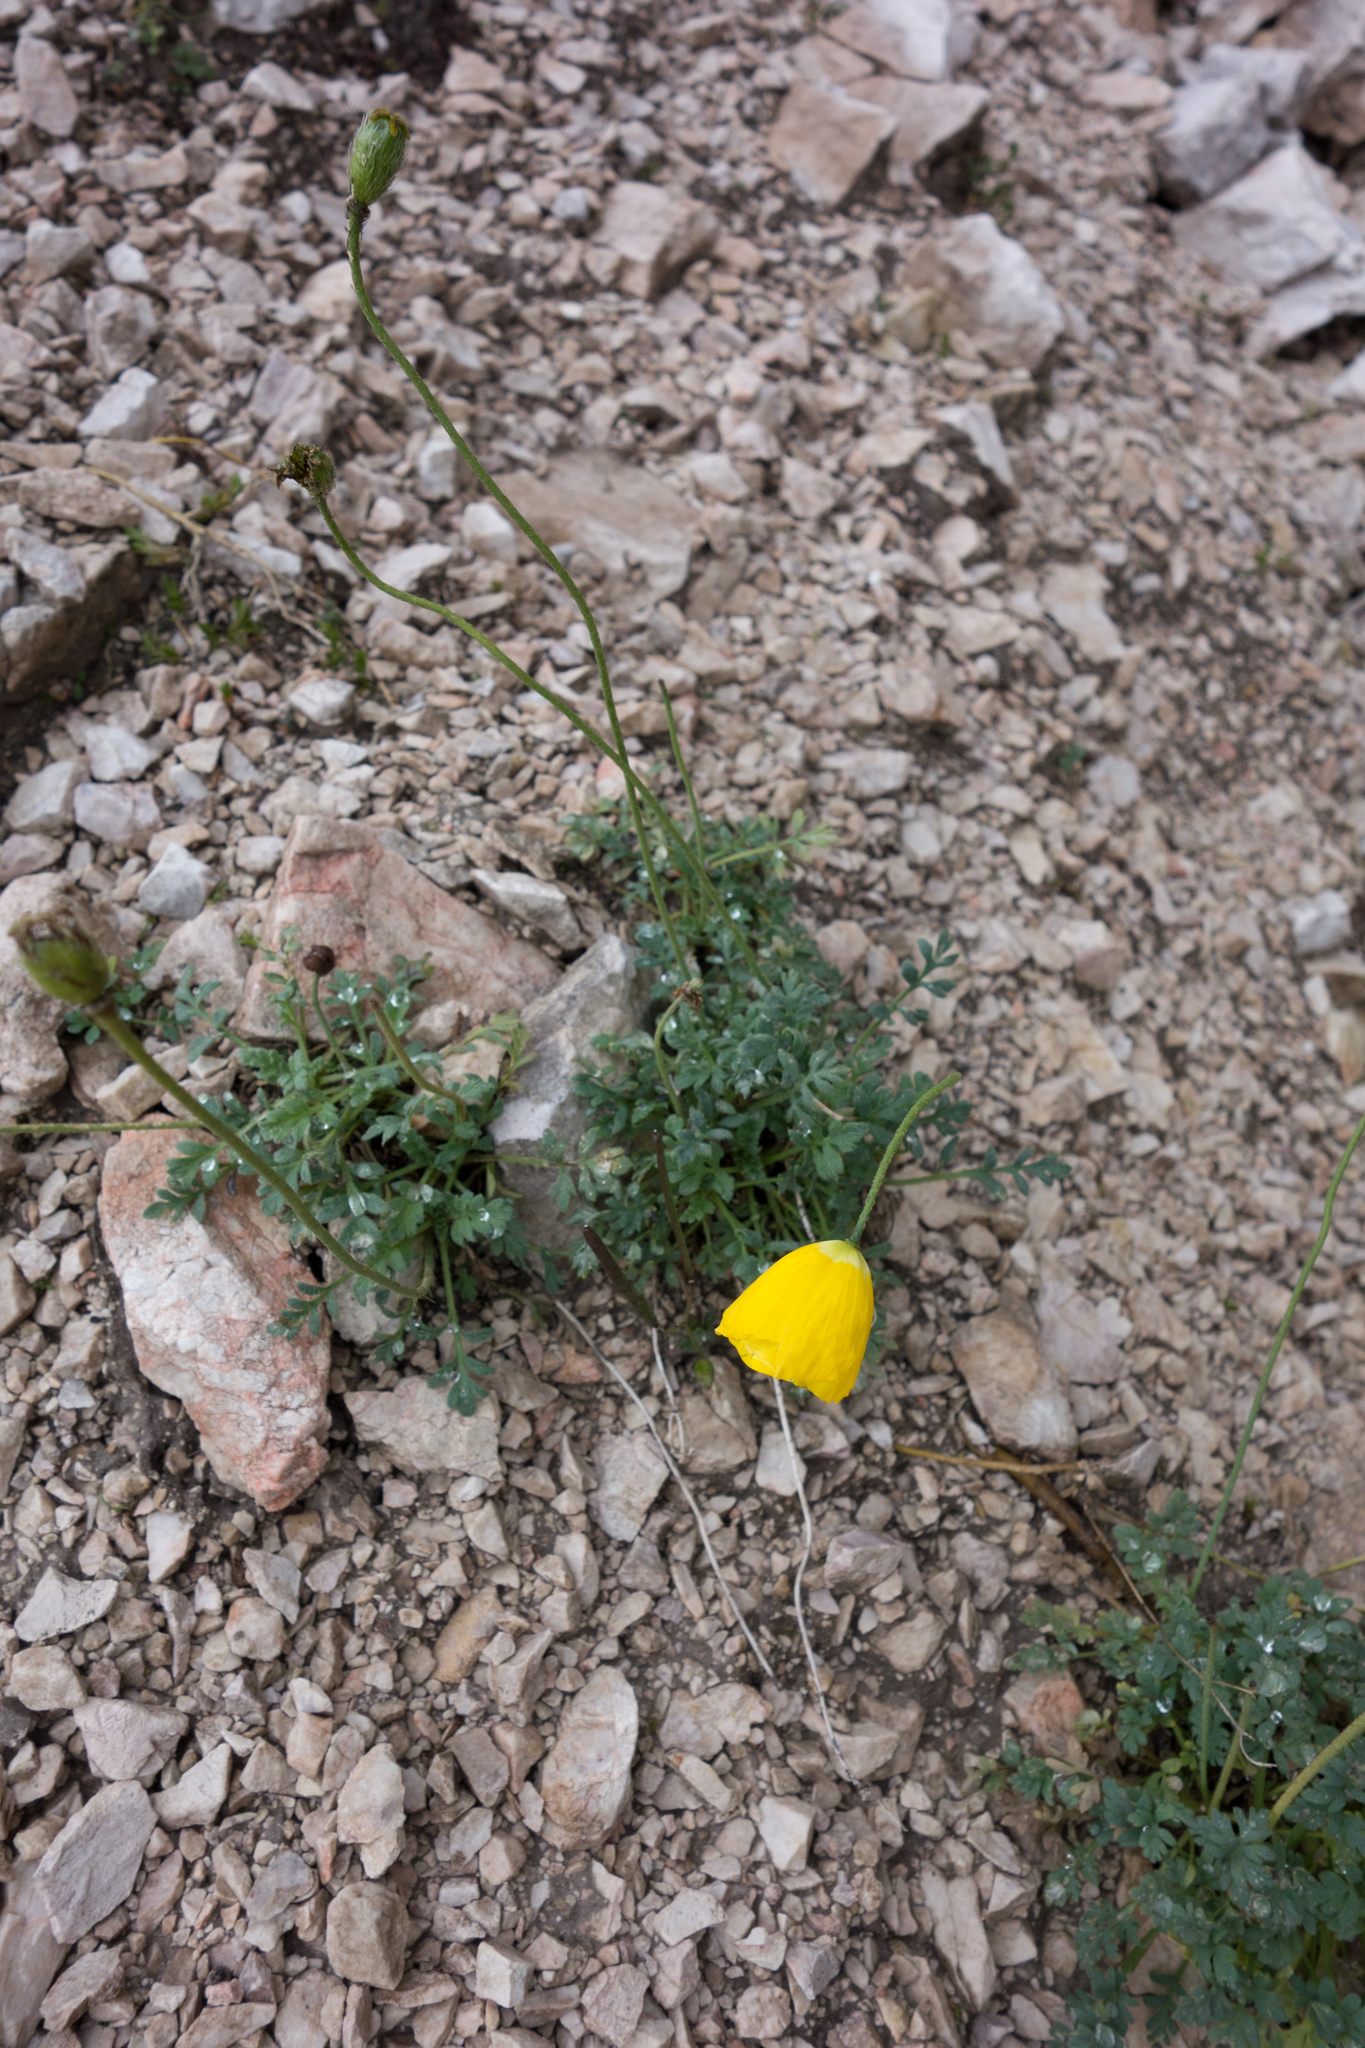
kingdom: Plantae
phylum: Tracheophyta
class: Magnoliopsida
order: Ranunculales
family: Papaveraceae
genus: Papaver
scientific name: Papaver alpinum
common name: Austrian poppy
